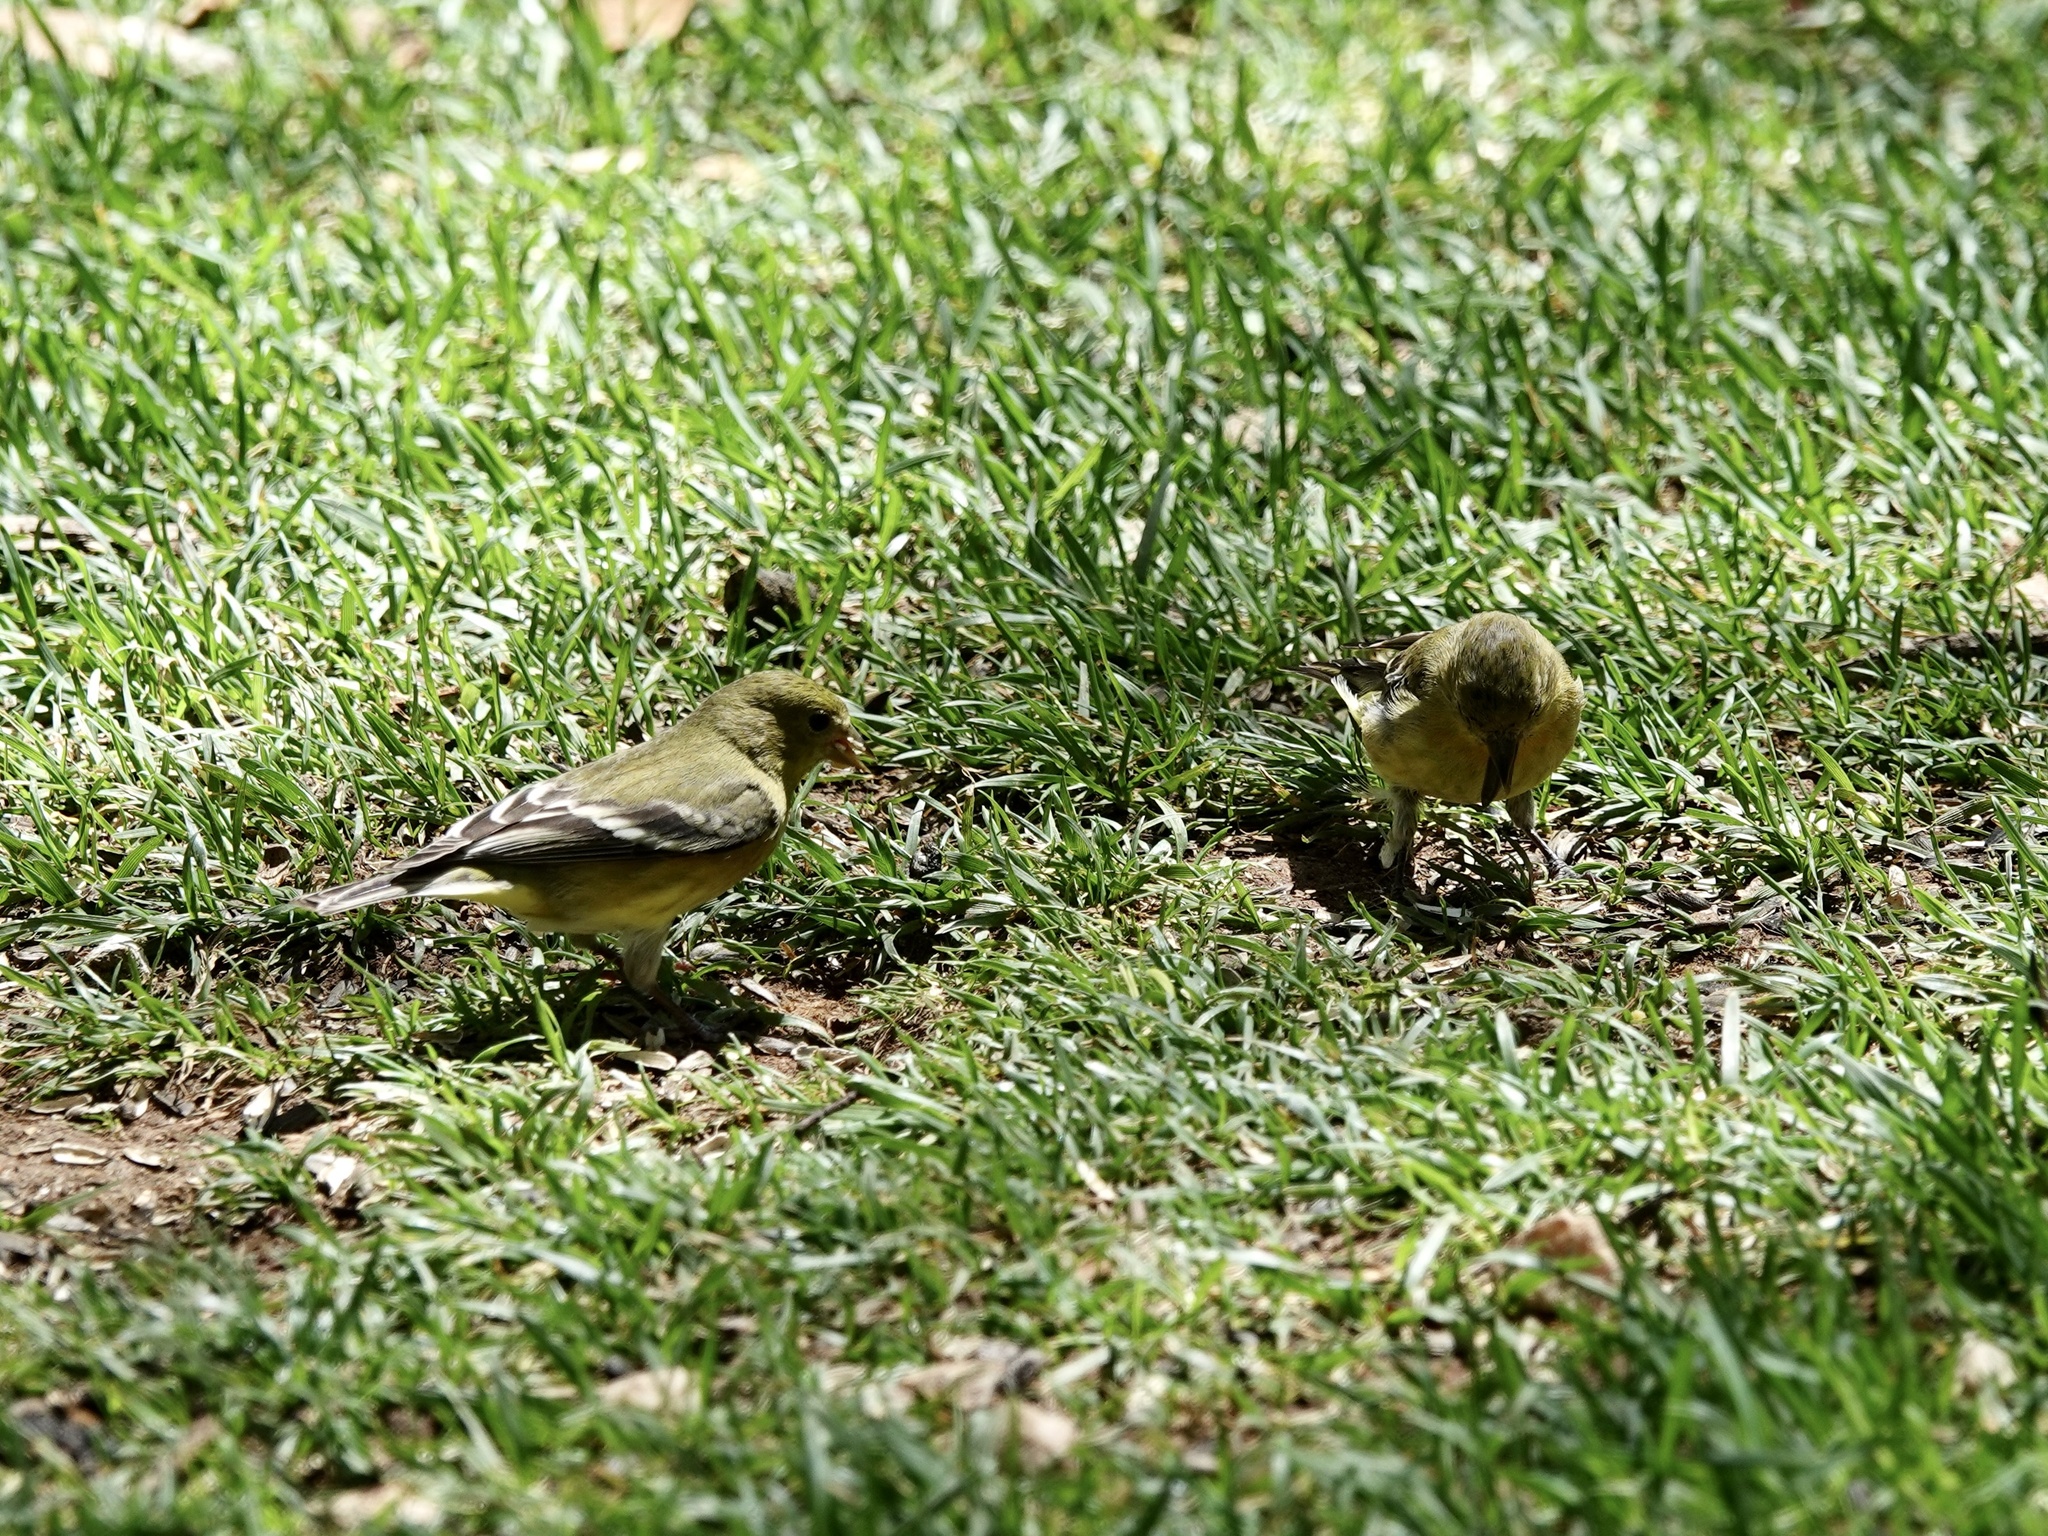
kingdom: Animalia
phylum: Chordata
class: Aves
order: Passeriformes
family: Fringillidae
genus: Spinus
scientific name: Spinus psaltria
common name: Lesser goldfinch
